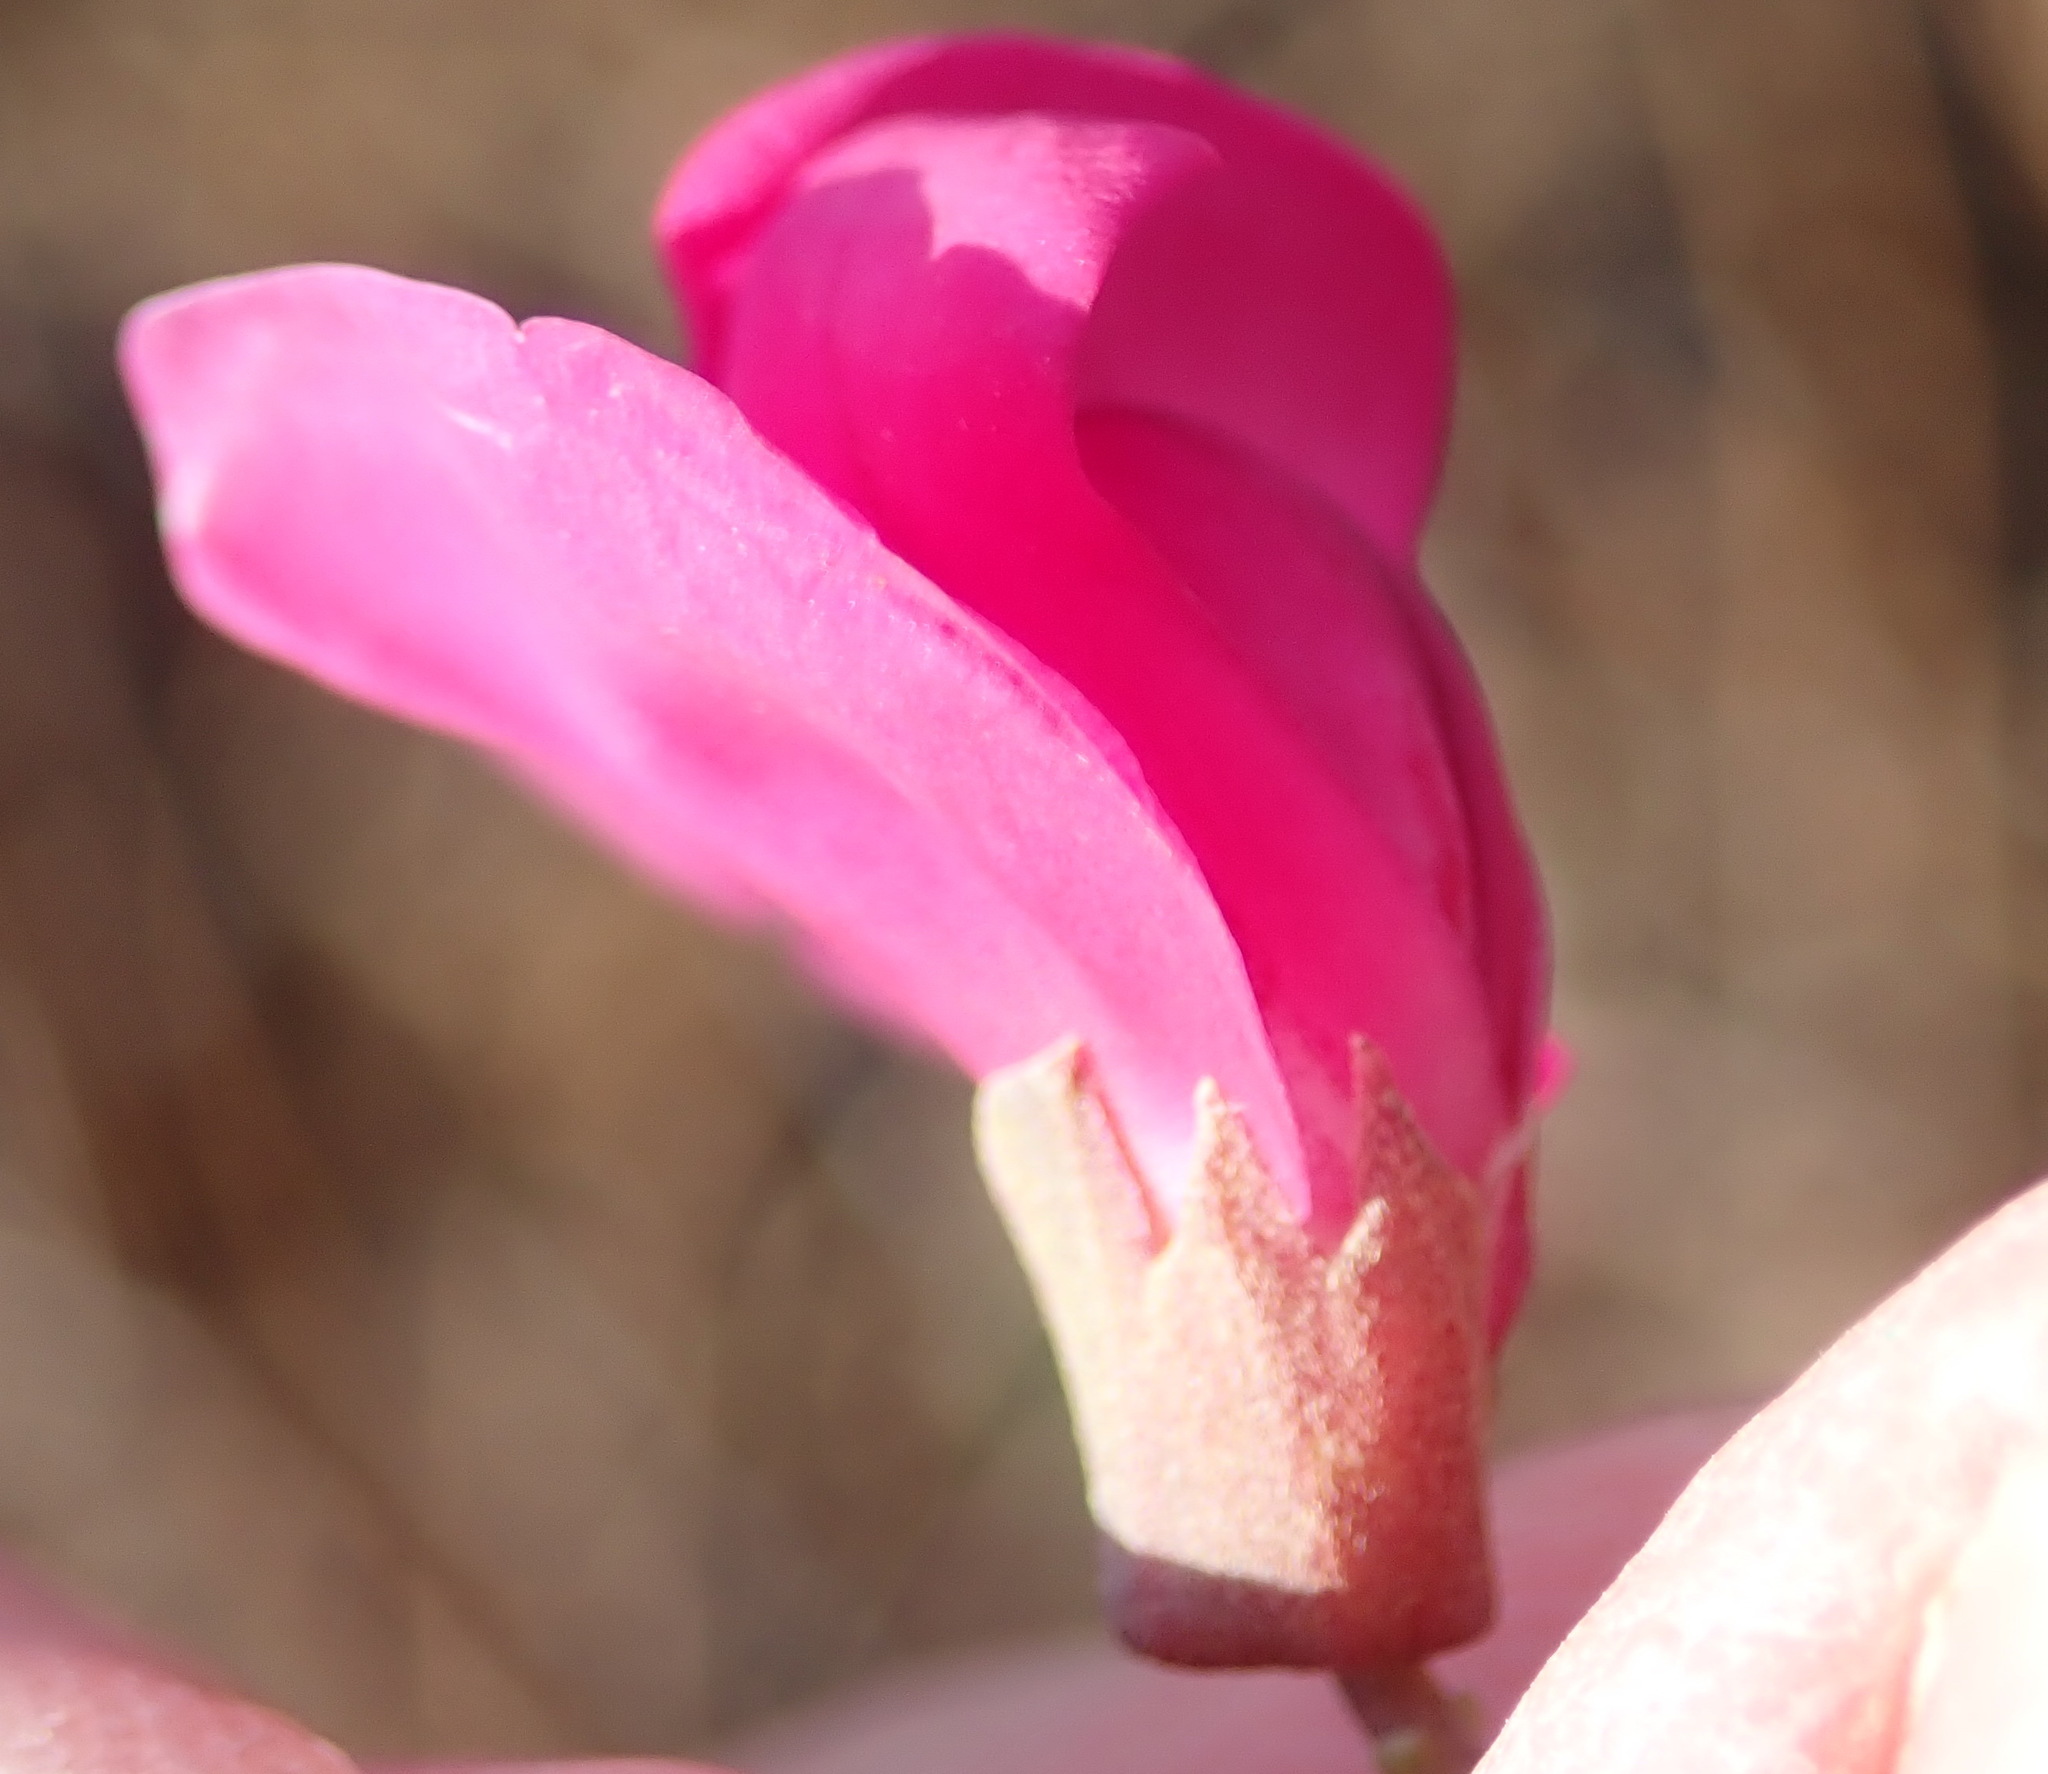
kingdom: Plantae
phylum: Tracheophyta
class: Magnoliopsida
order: Fabales
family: Fabaceae
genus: Hypocalyptus
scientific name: Hypocalyptus coluteoides
